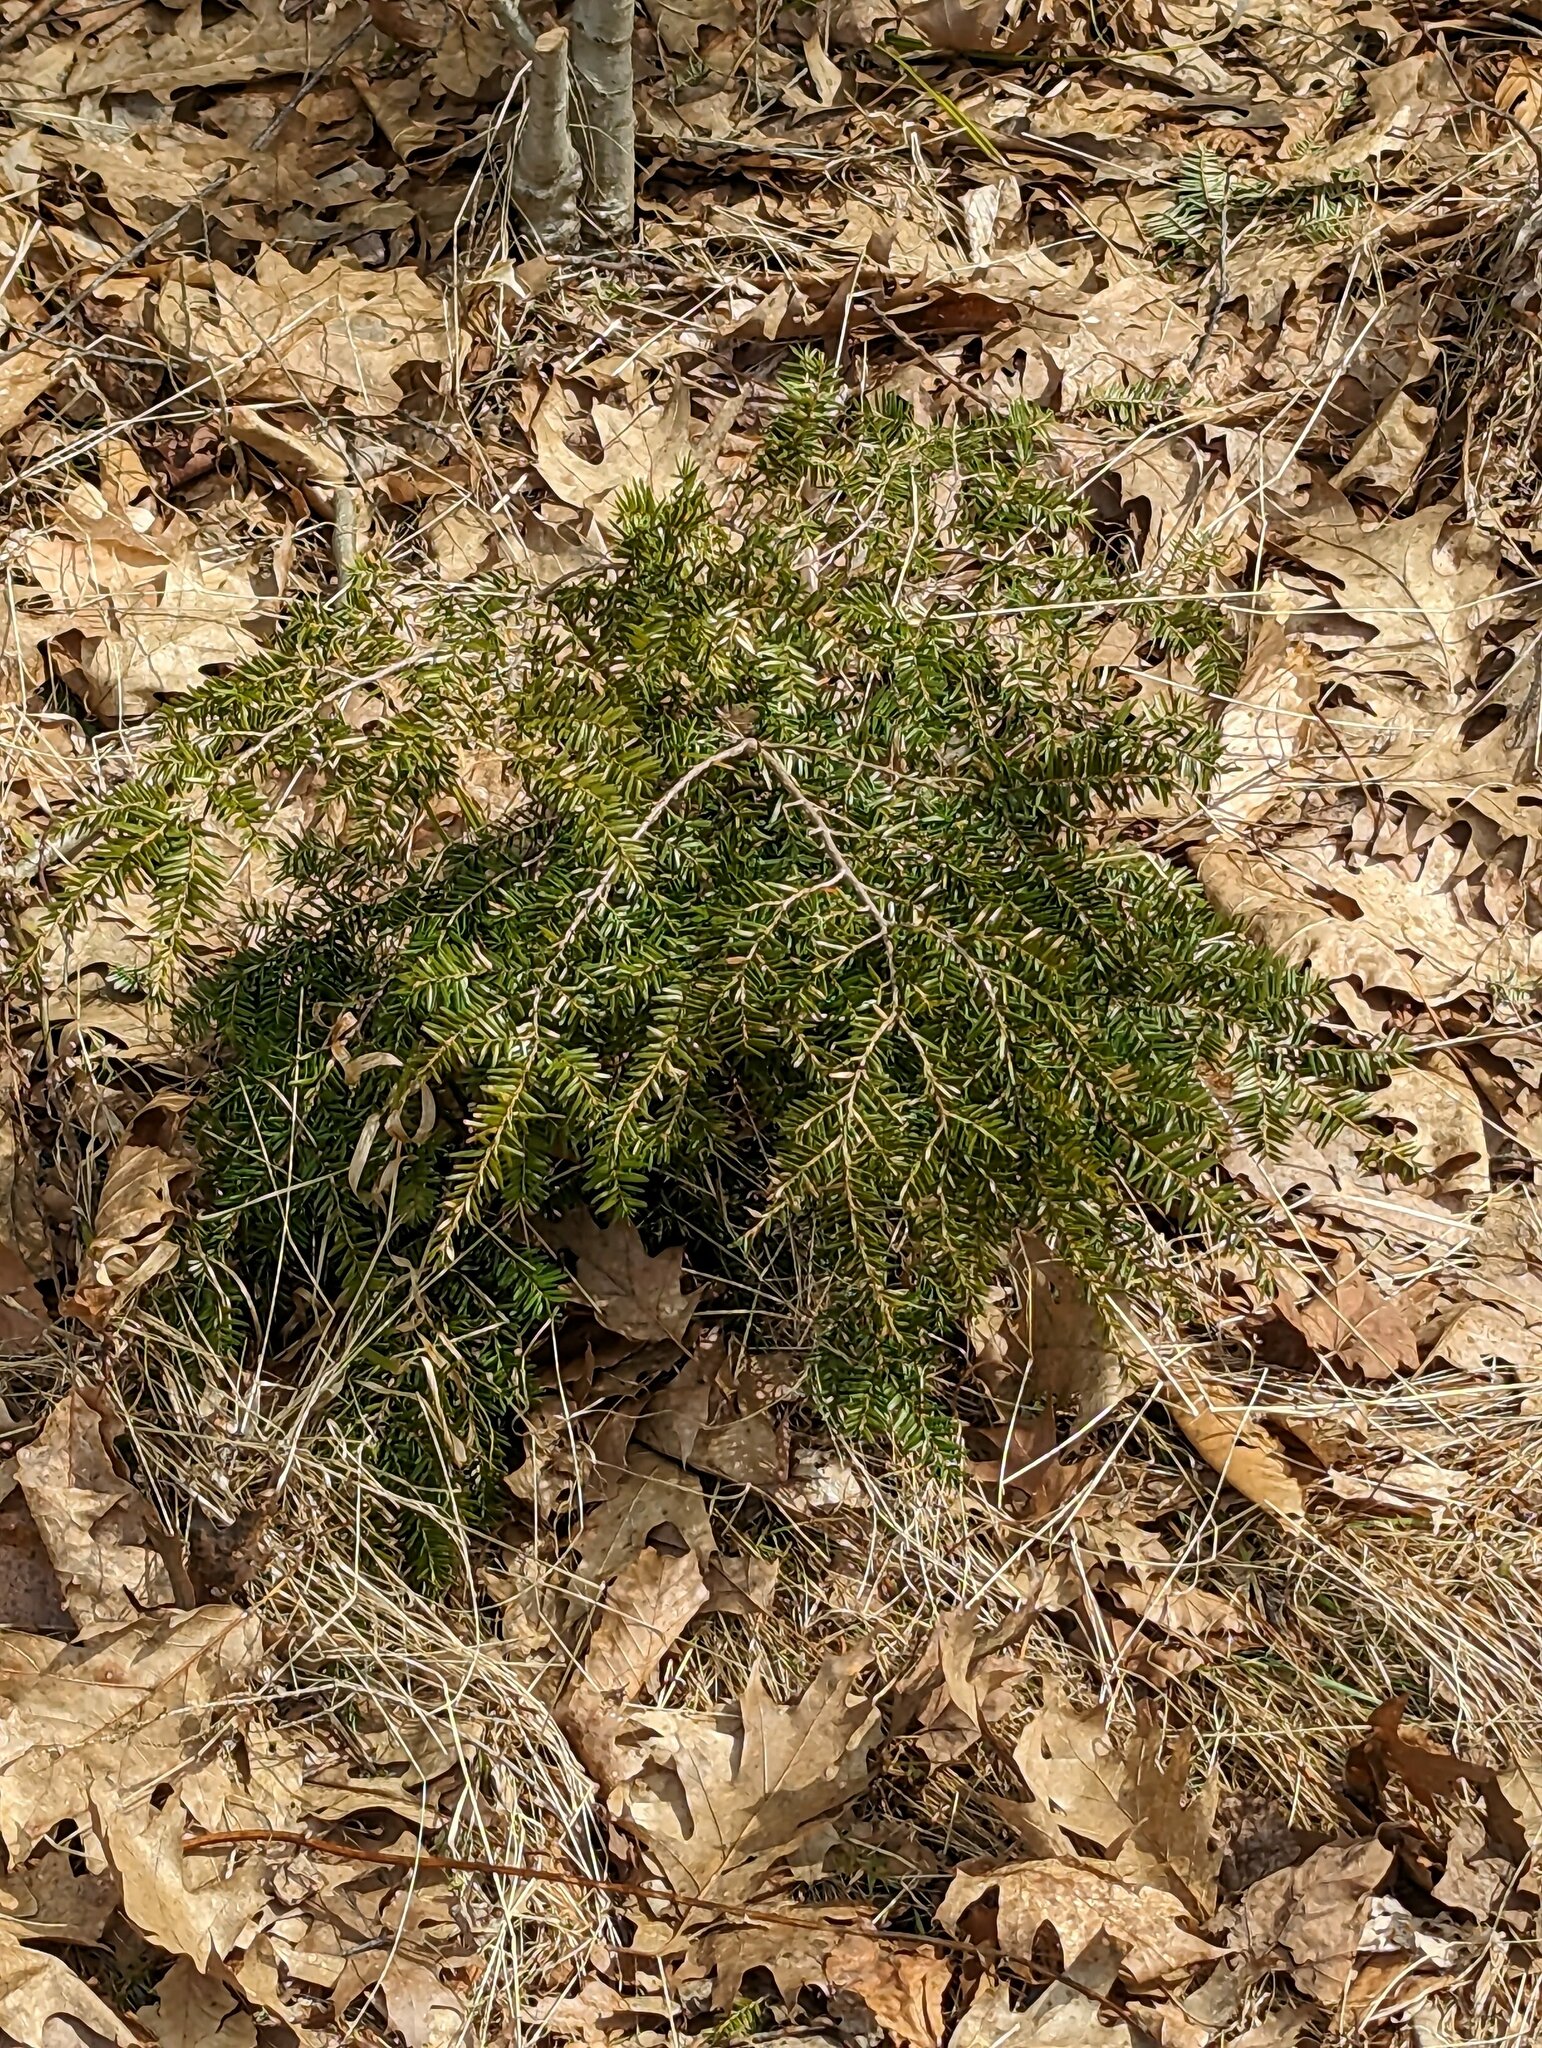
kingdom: Plantae
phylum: Tracheophyta
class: Pinopsida
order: Pinales
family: Pinaceae
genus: Tsuga
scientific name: Tsuga canadensis
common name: Eastern hemlock
